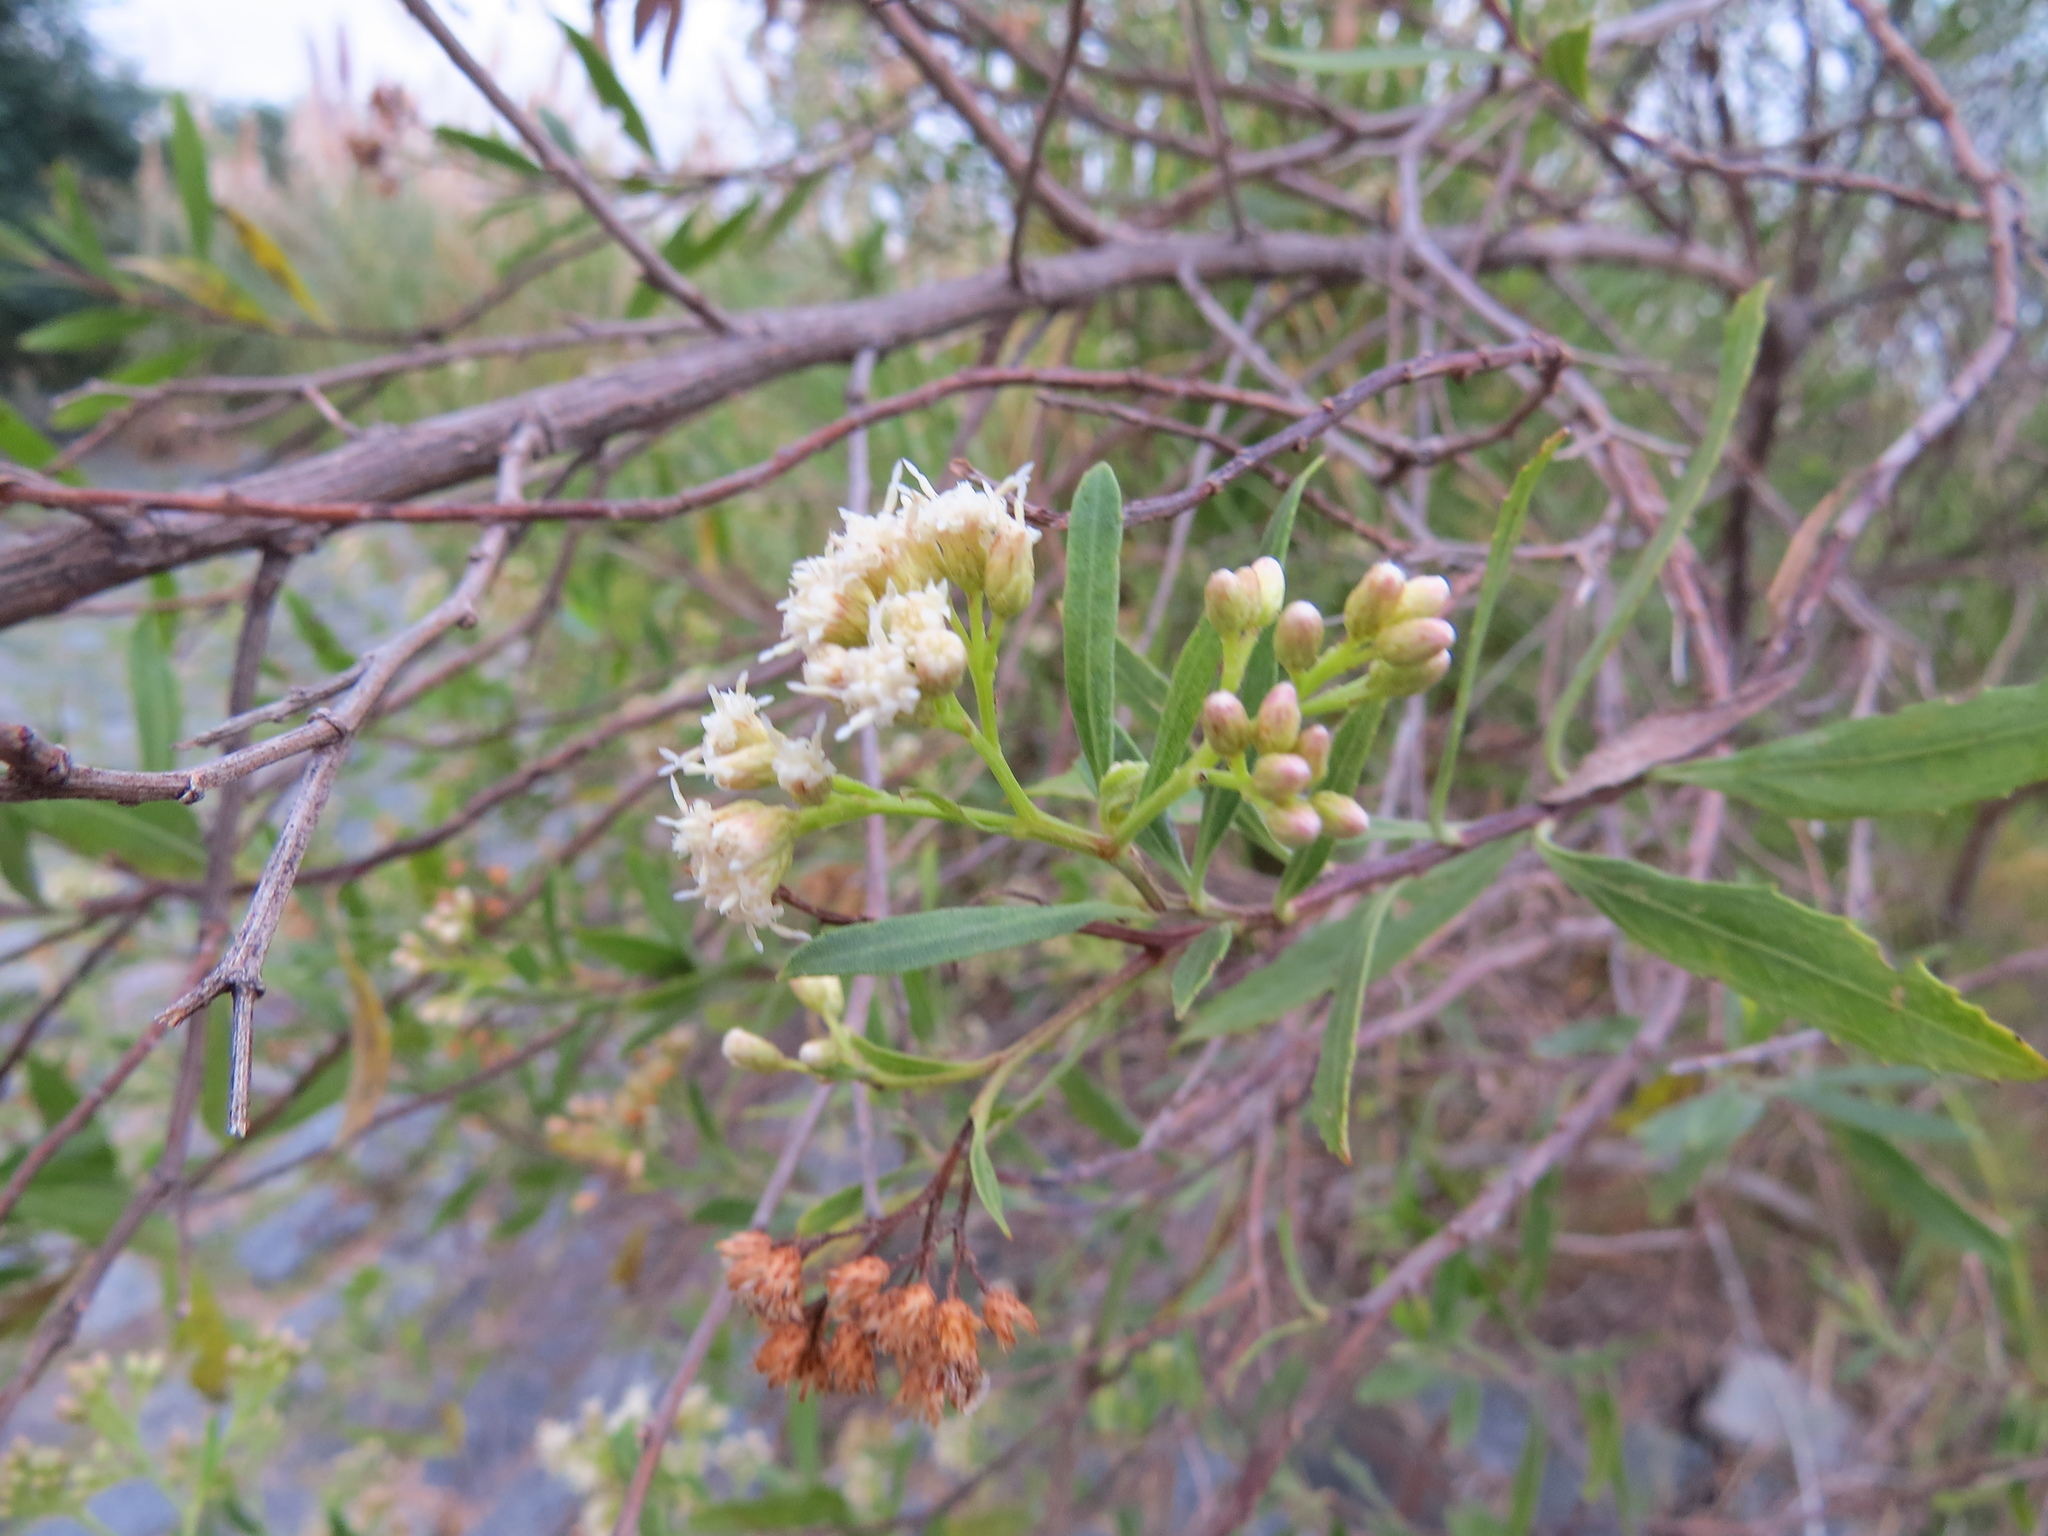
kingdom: Plantae
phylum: Tracheophyta
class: Magnoliopsida
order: Asterales
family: Asteraceae
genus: Baccharis
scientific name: Baccharis salicifolia
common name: Sticky baccharis
